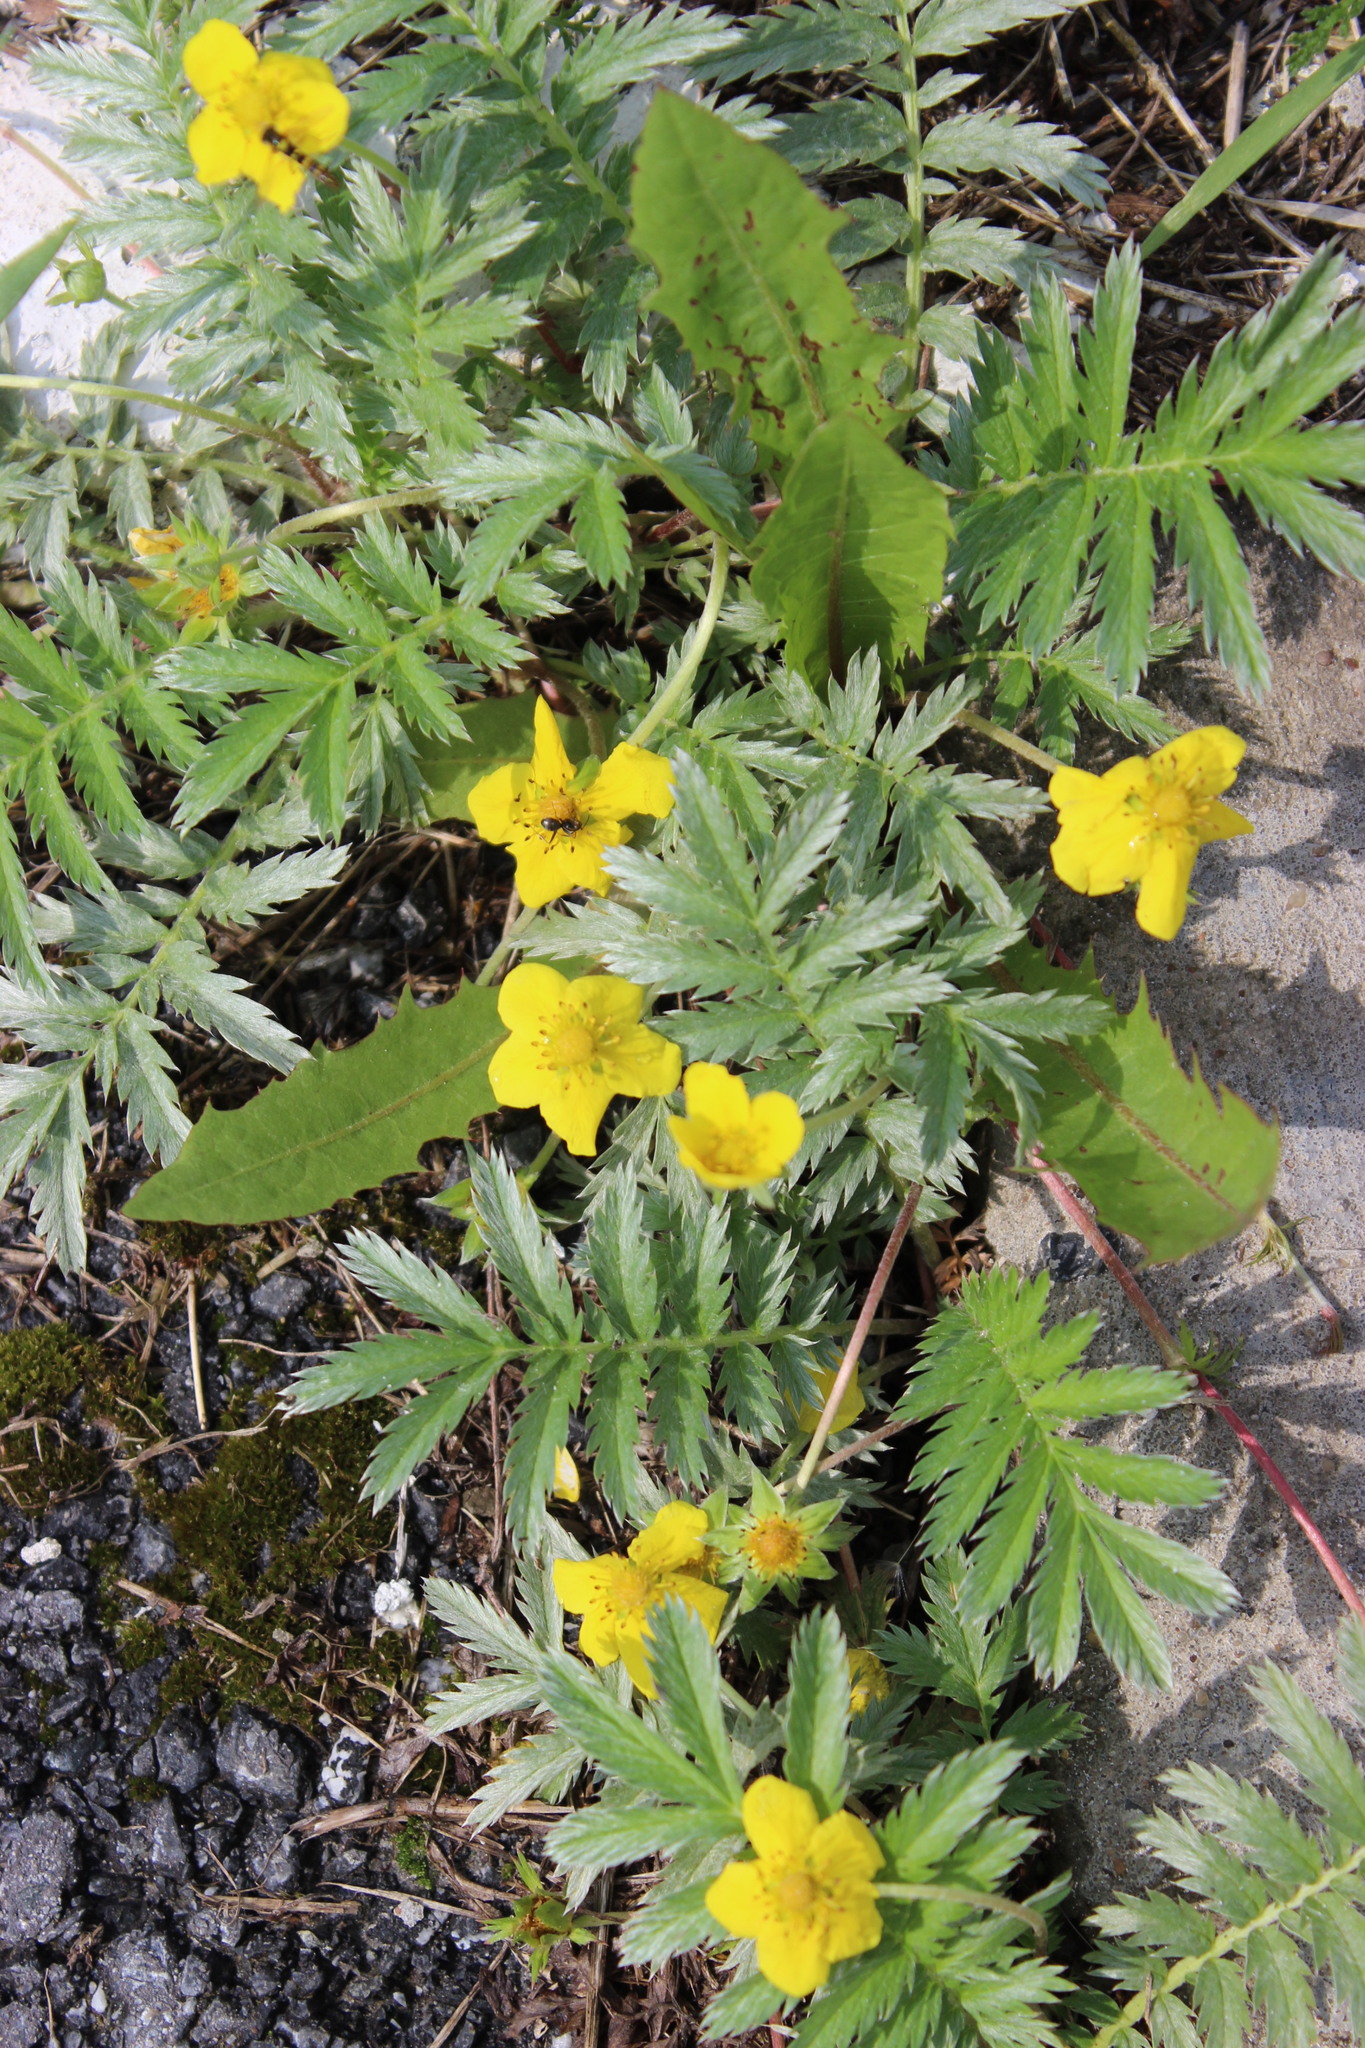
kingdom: Plantae
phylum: Tracheophyta
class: Magnoliopsida
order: Rosales
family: Rosaceae
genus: Argentina
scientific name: Argentina anserina
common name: Common silverweed
